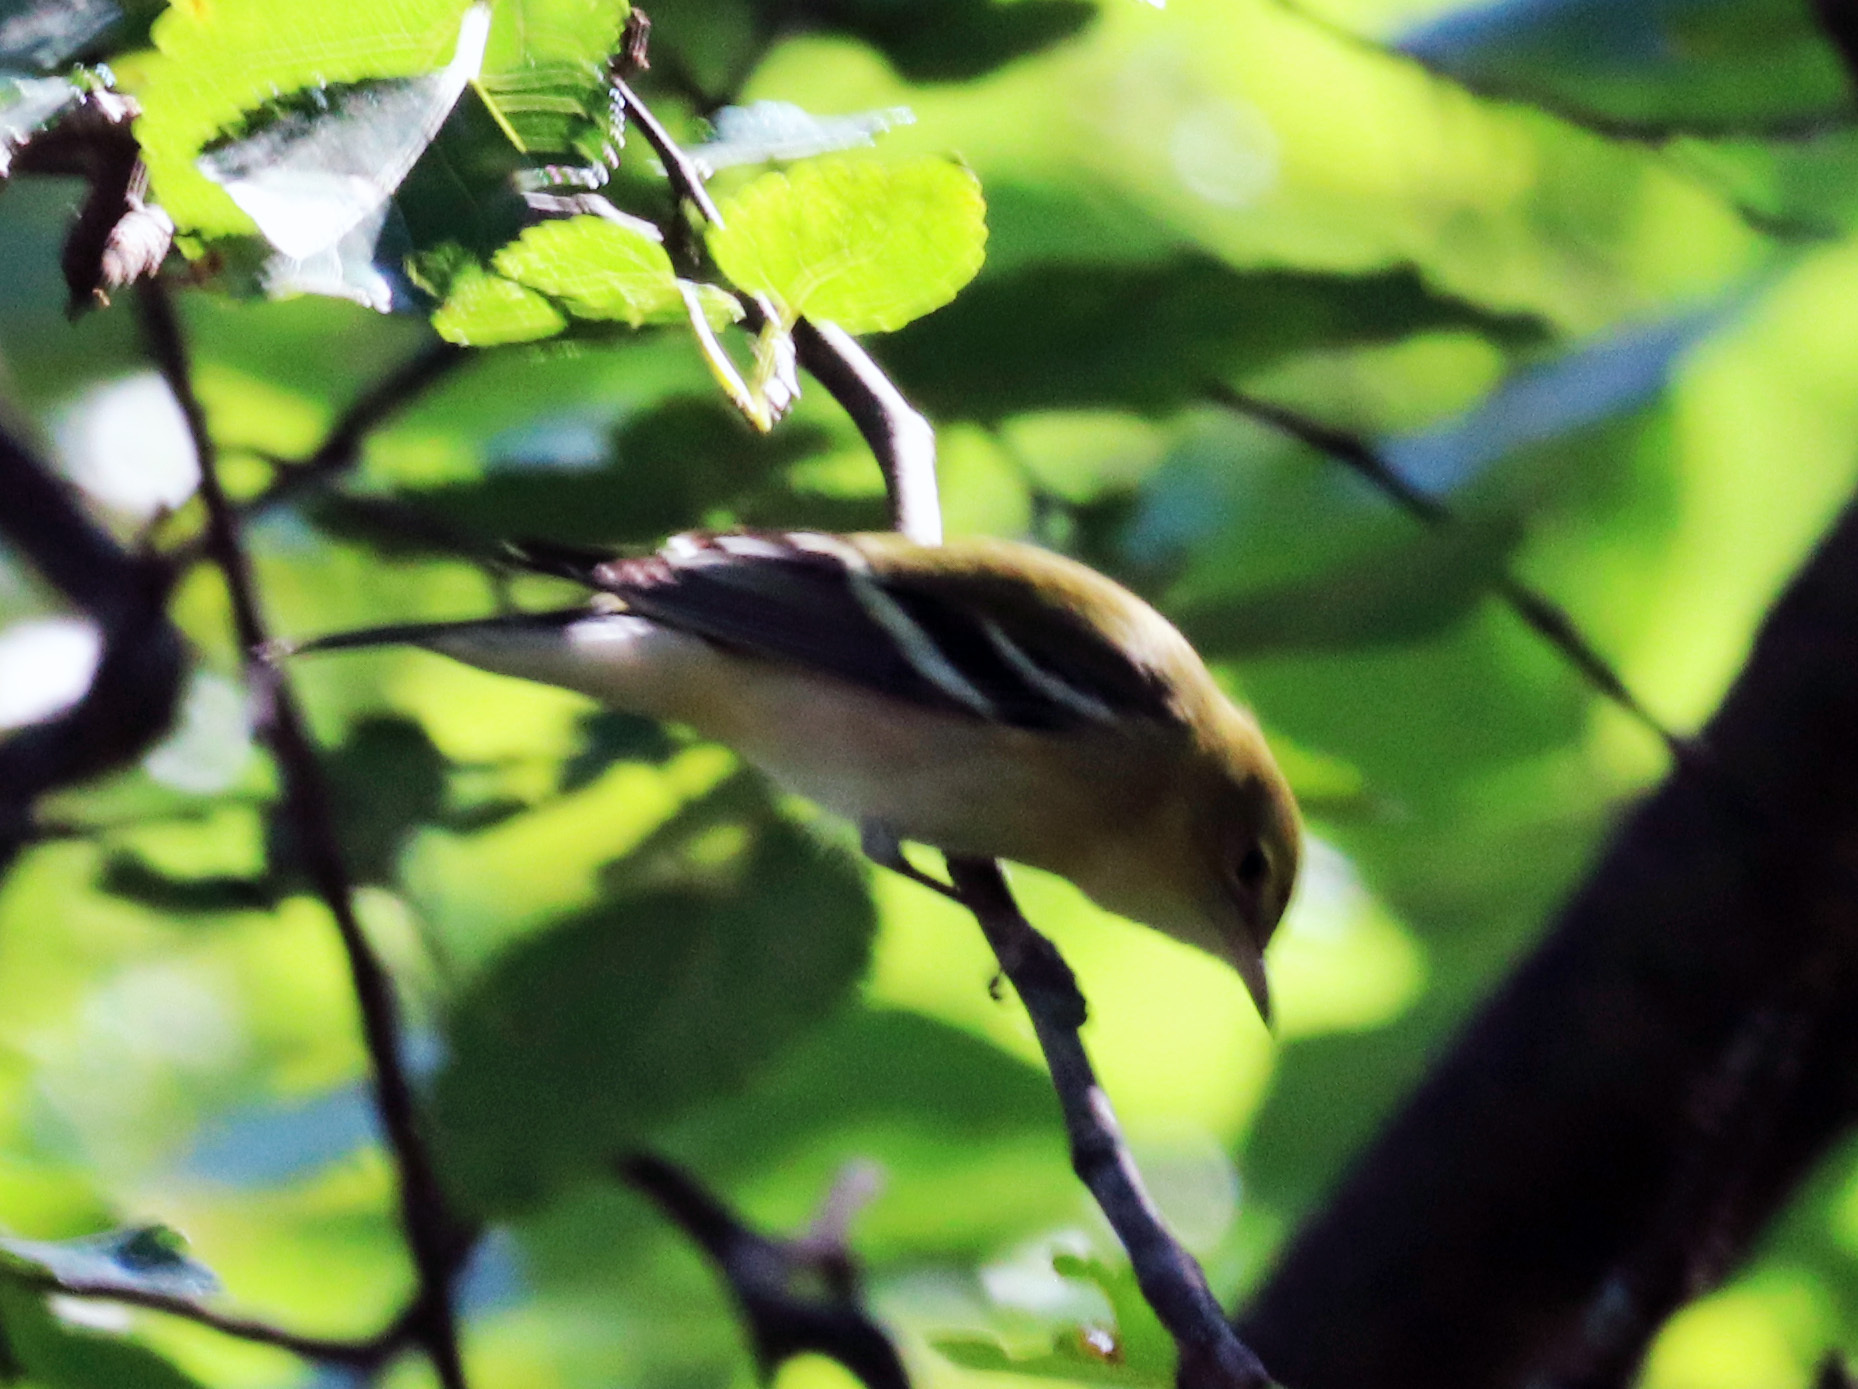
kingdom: Animalia
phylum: Chordata
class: Aves
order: Passeriformes
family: Parulidae
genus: Setophaga
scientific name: Setophaga castanea
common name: Bay-breasted warbler
